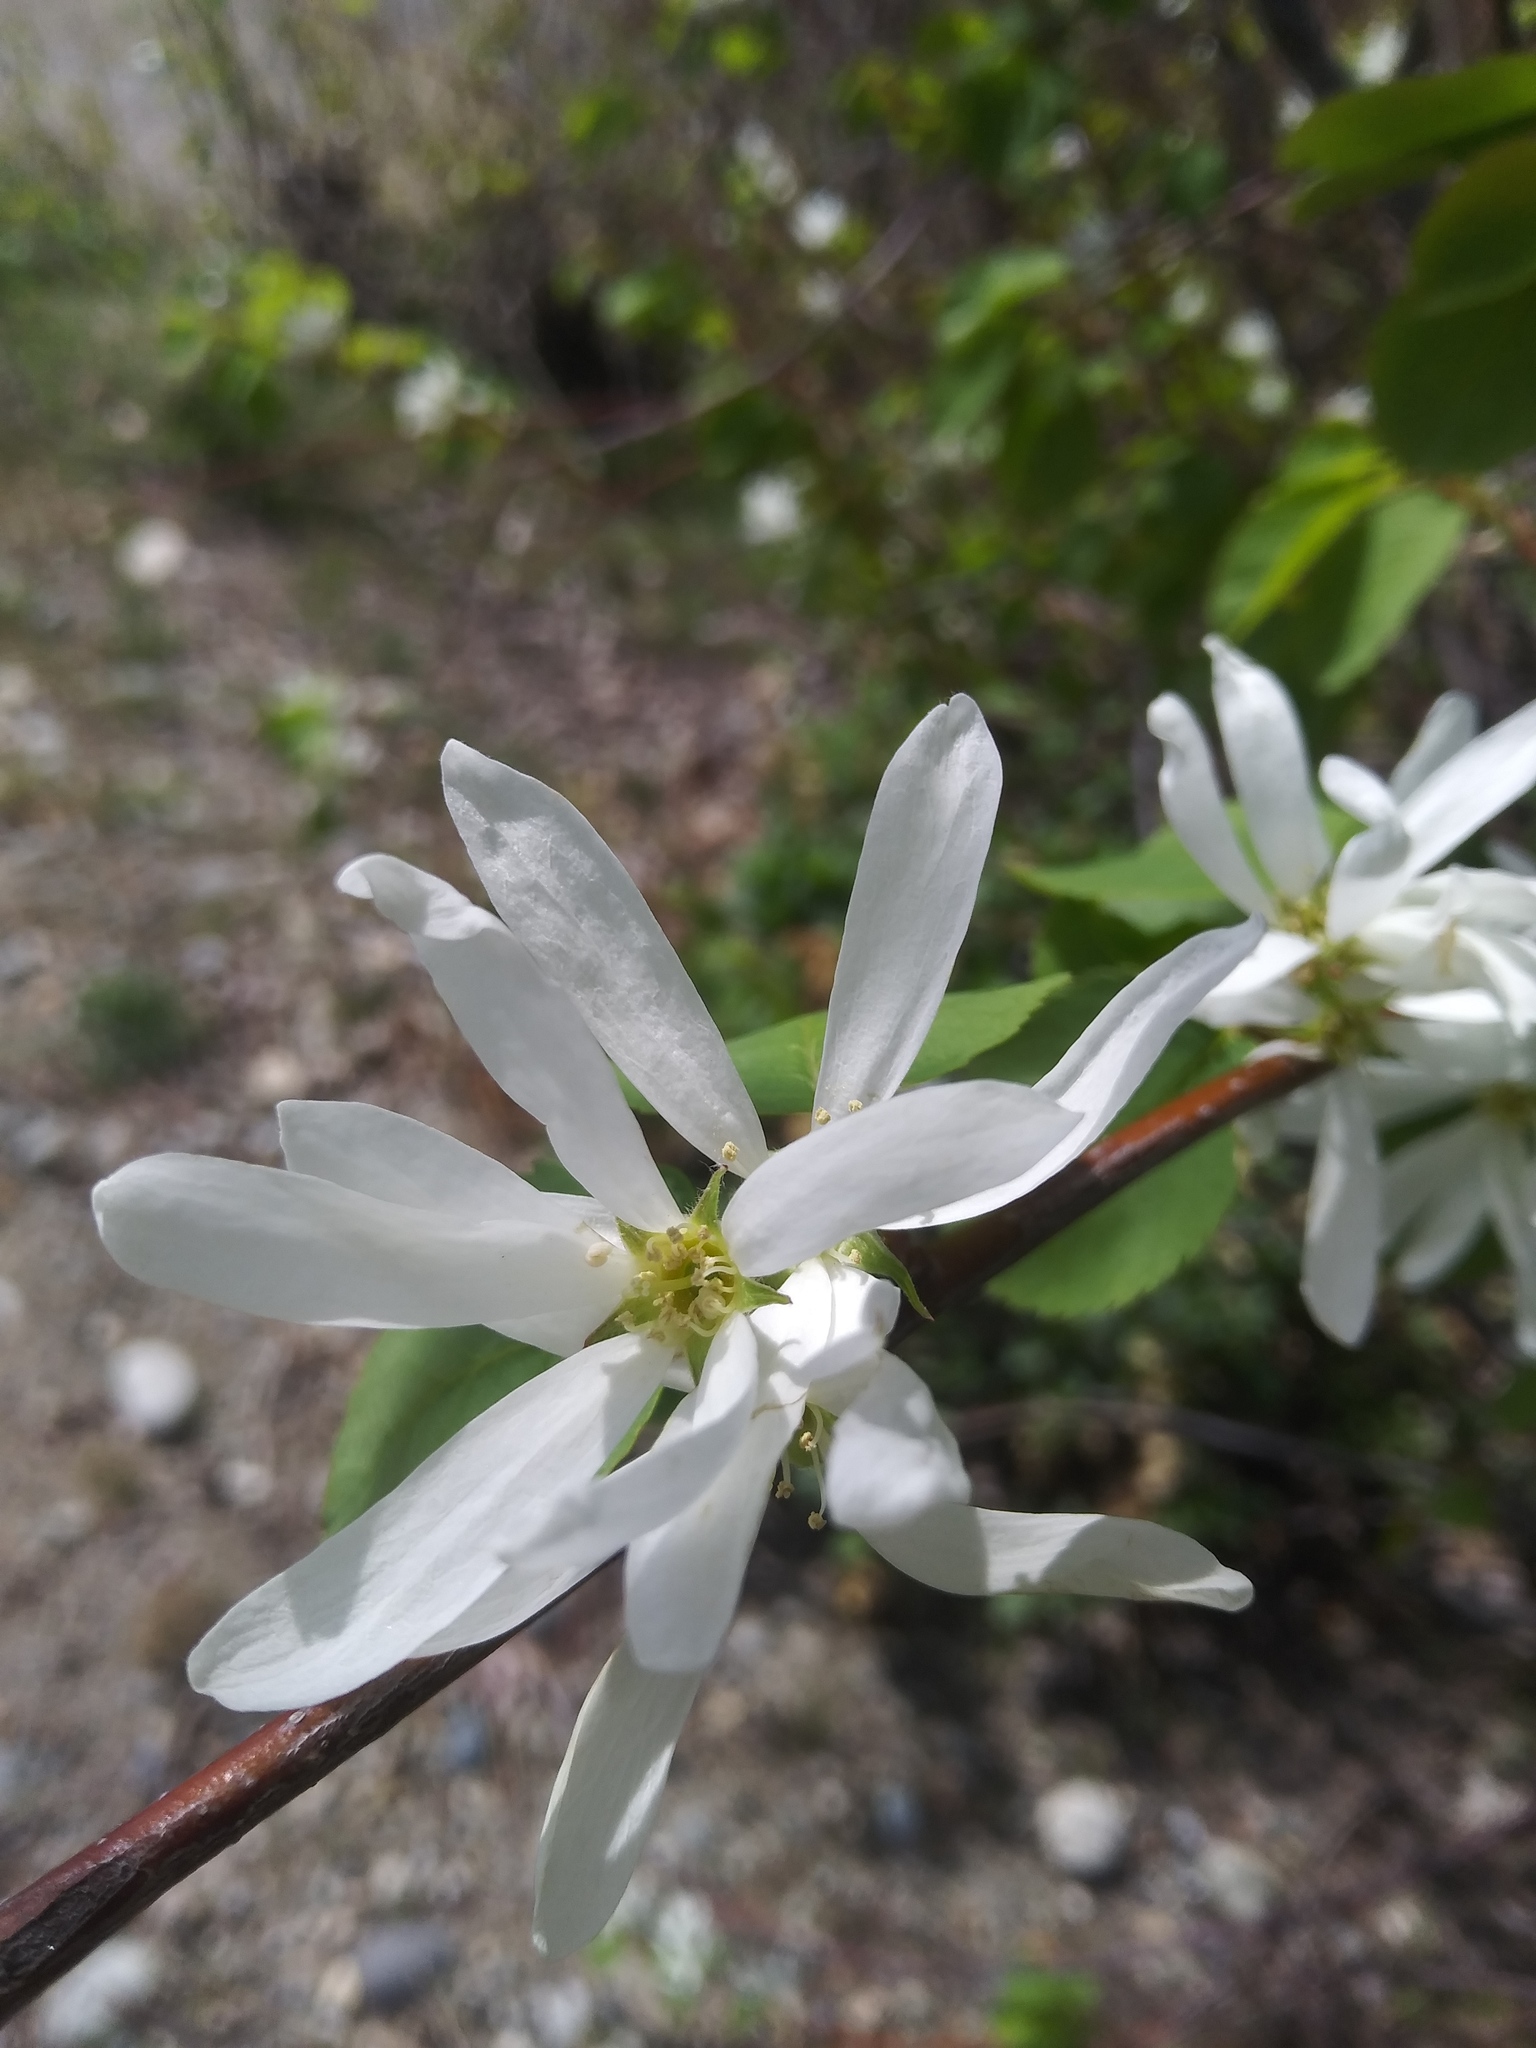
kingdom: Plantae
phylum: Tracheophyta
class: Magnoliopsida
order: Rosales
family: Rosaceae
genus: Amelanchier
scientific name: Amelanchier alnifolia
